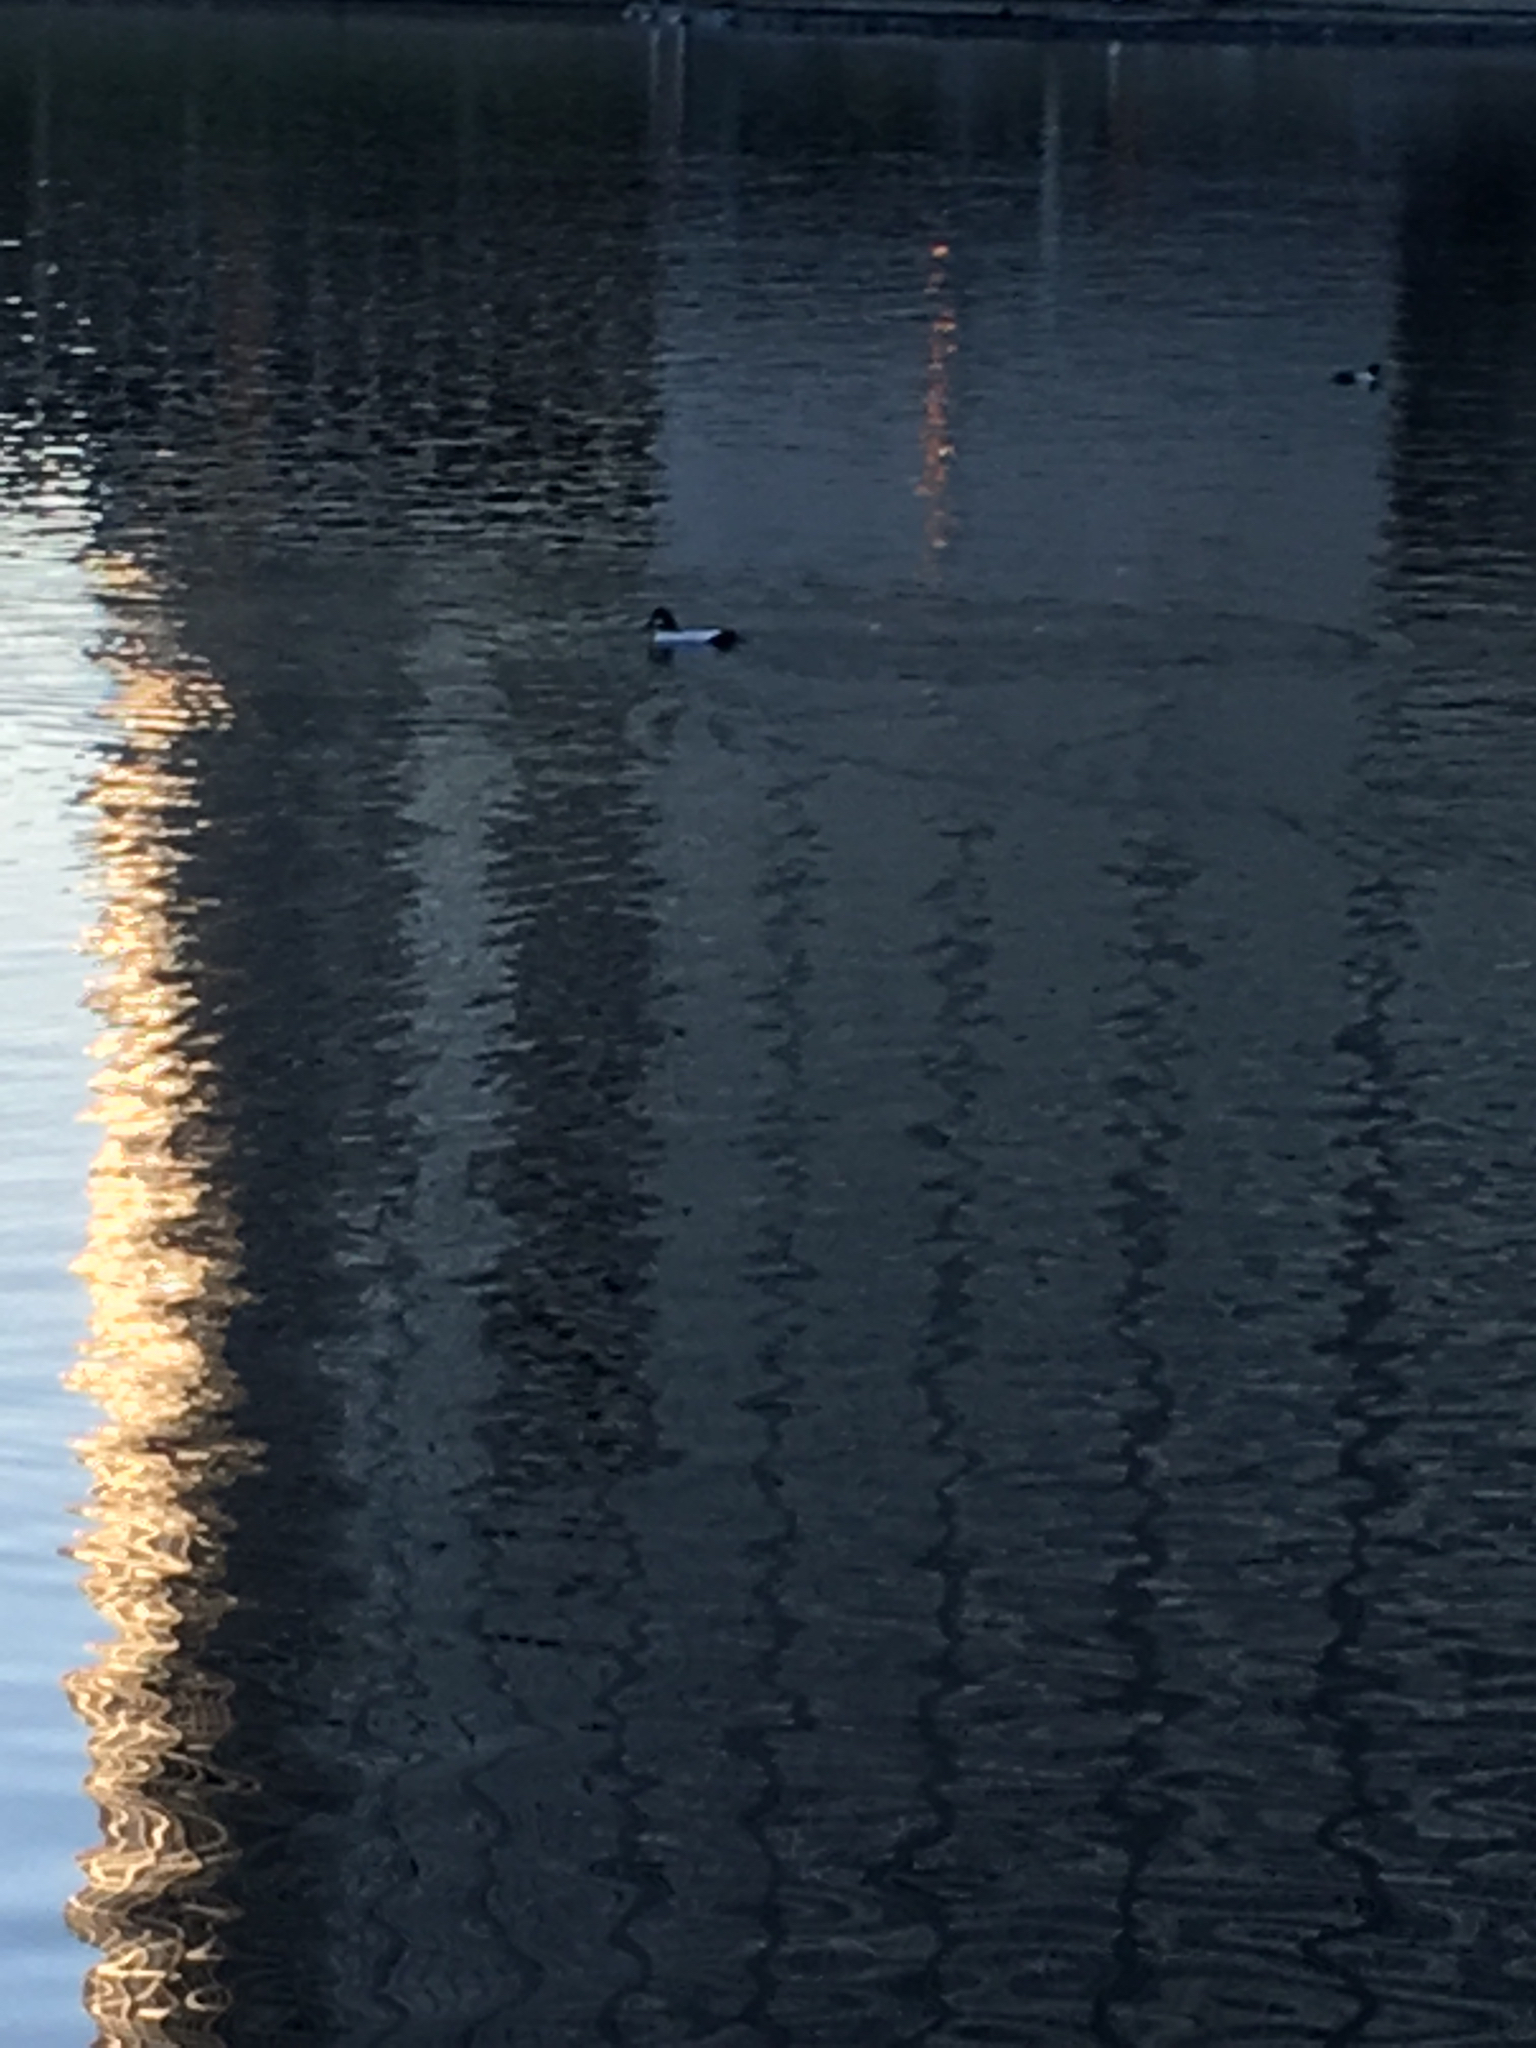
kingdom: Animalia
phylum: Chordata
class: Aves
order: Anseriformes
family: Anatidae
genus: Bucephala
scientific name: Bucephala clangula
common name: Common goldeneye
